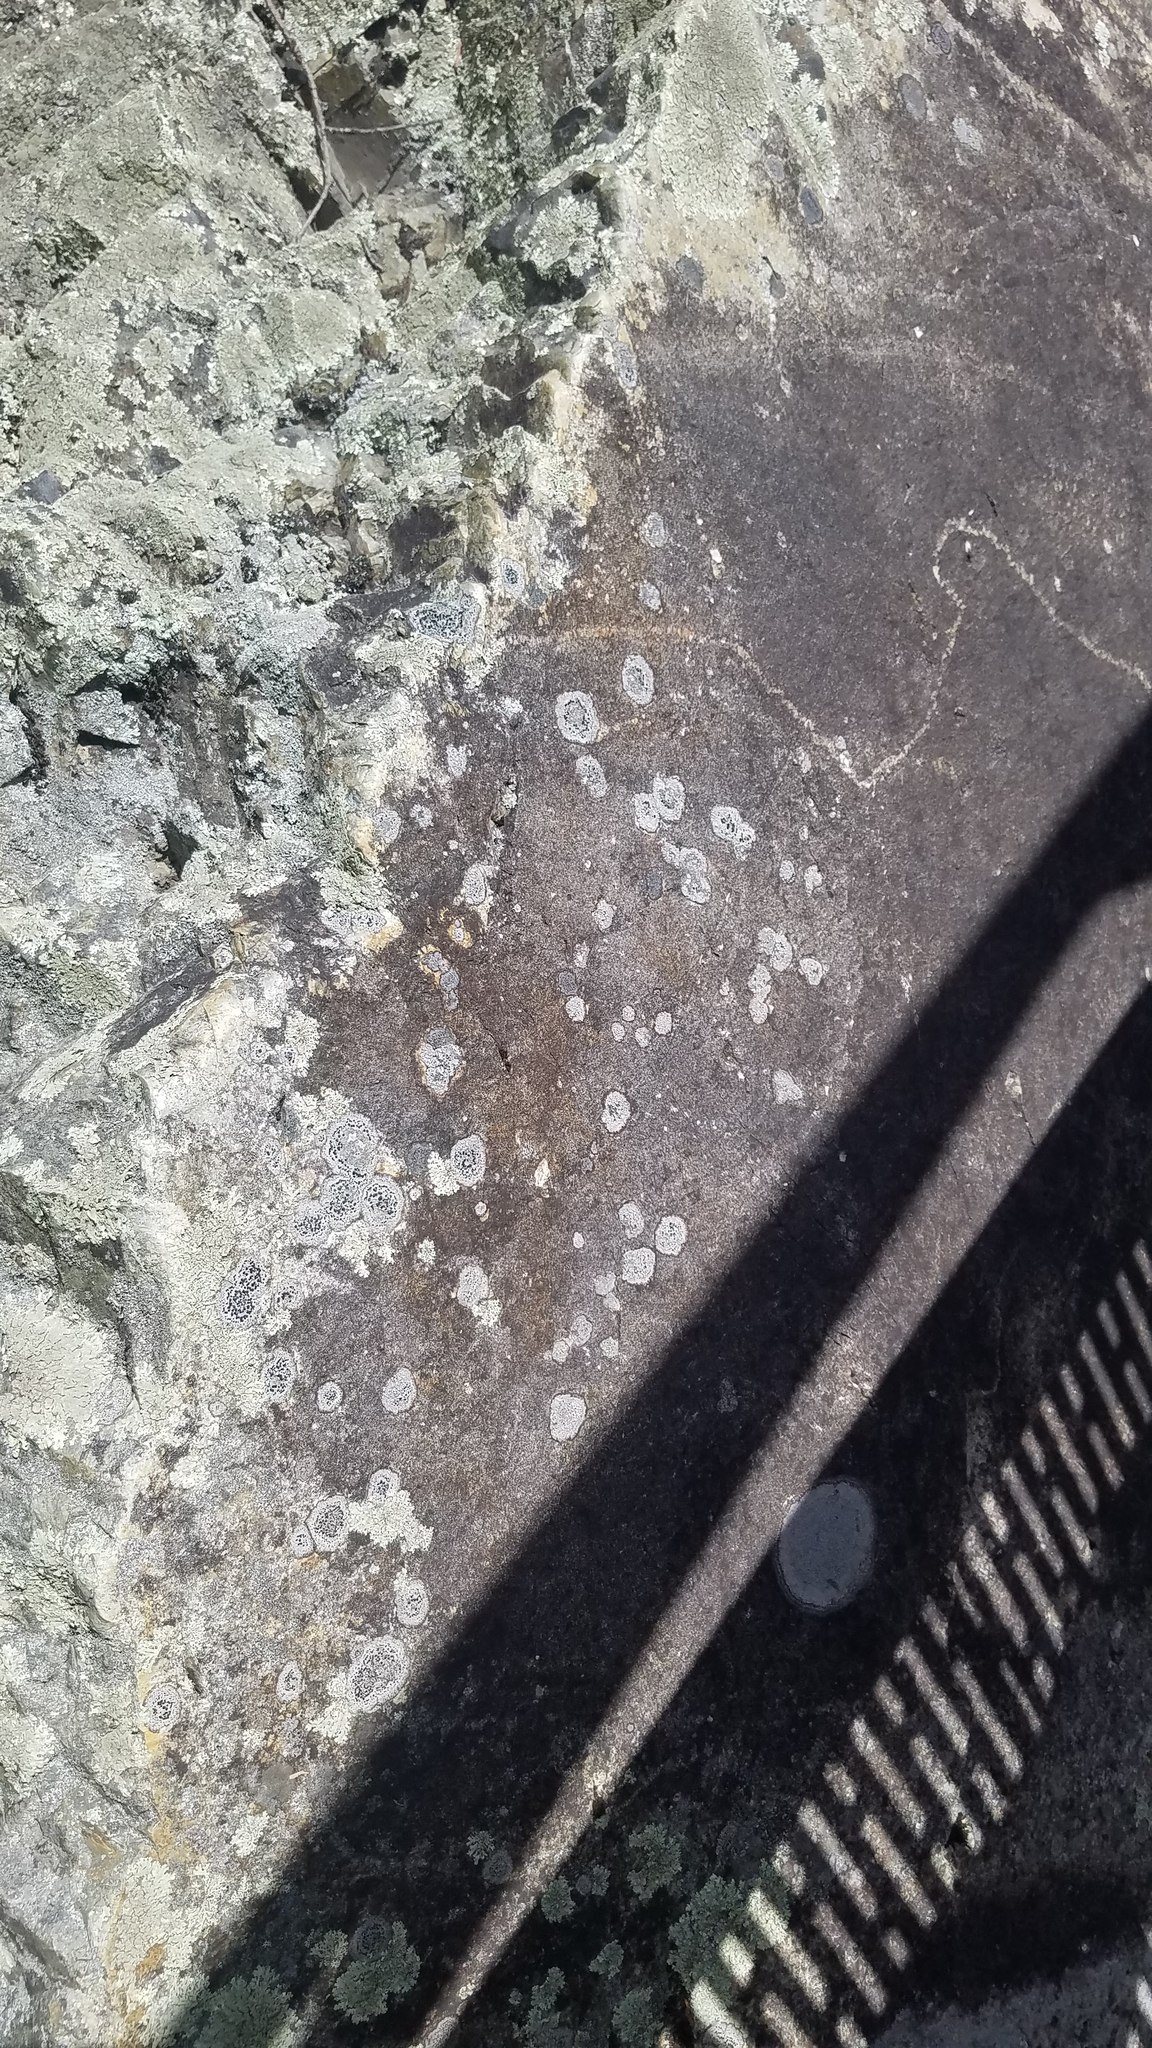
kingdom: Fungi
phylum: Ascomycota
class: Lecanoromycetes
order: Lecideales
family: Lecideaceae
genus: Porpidia
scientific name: Porpidia crustulata
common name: Concentric boulder lichen
